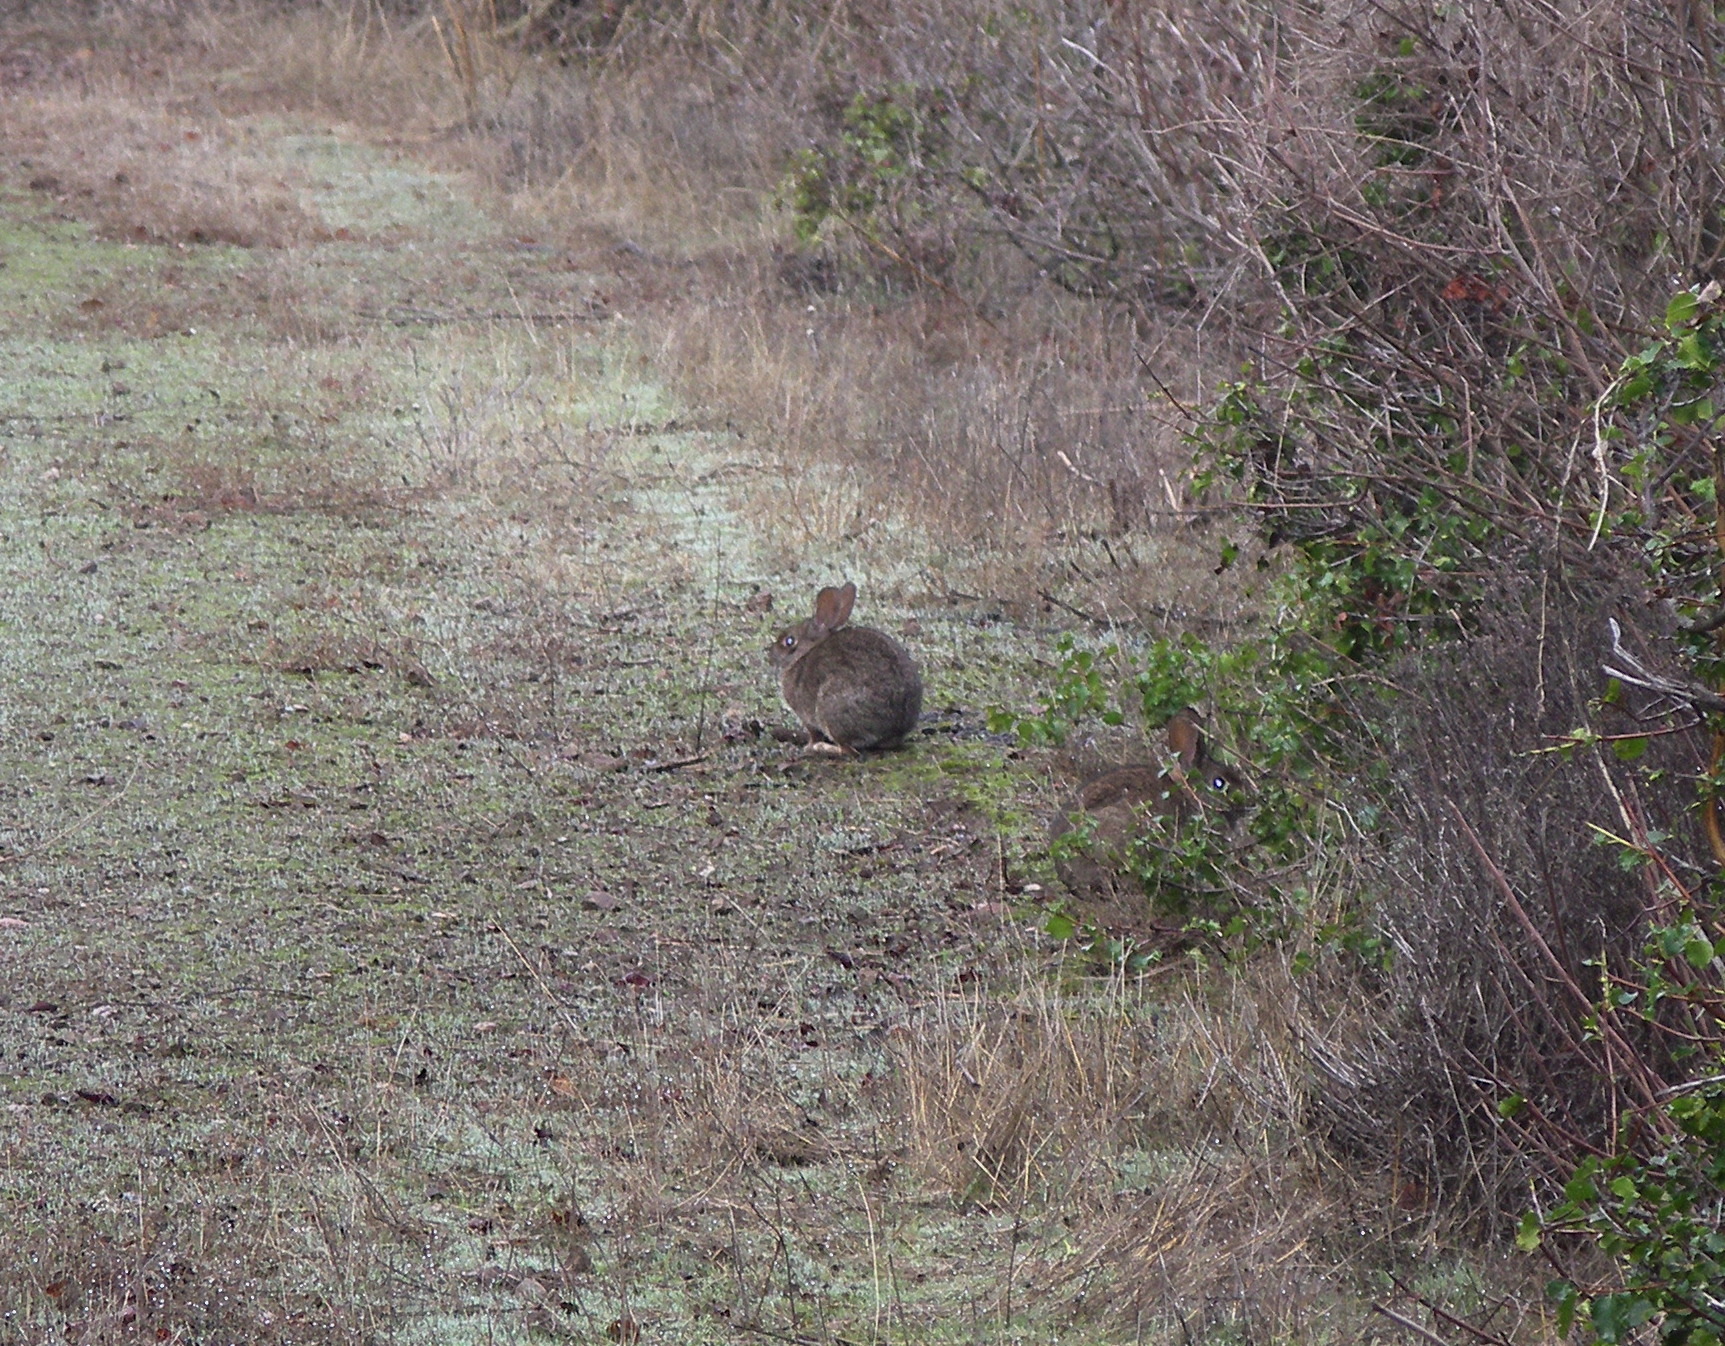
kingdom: Animalia
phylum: Chordata
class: Mammalia
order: Lagomorpha
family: Leporidae
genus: Sylvilagus
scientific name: Sylvilagus bachmani
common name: Brush rabbit
